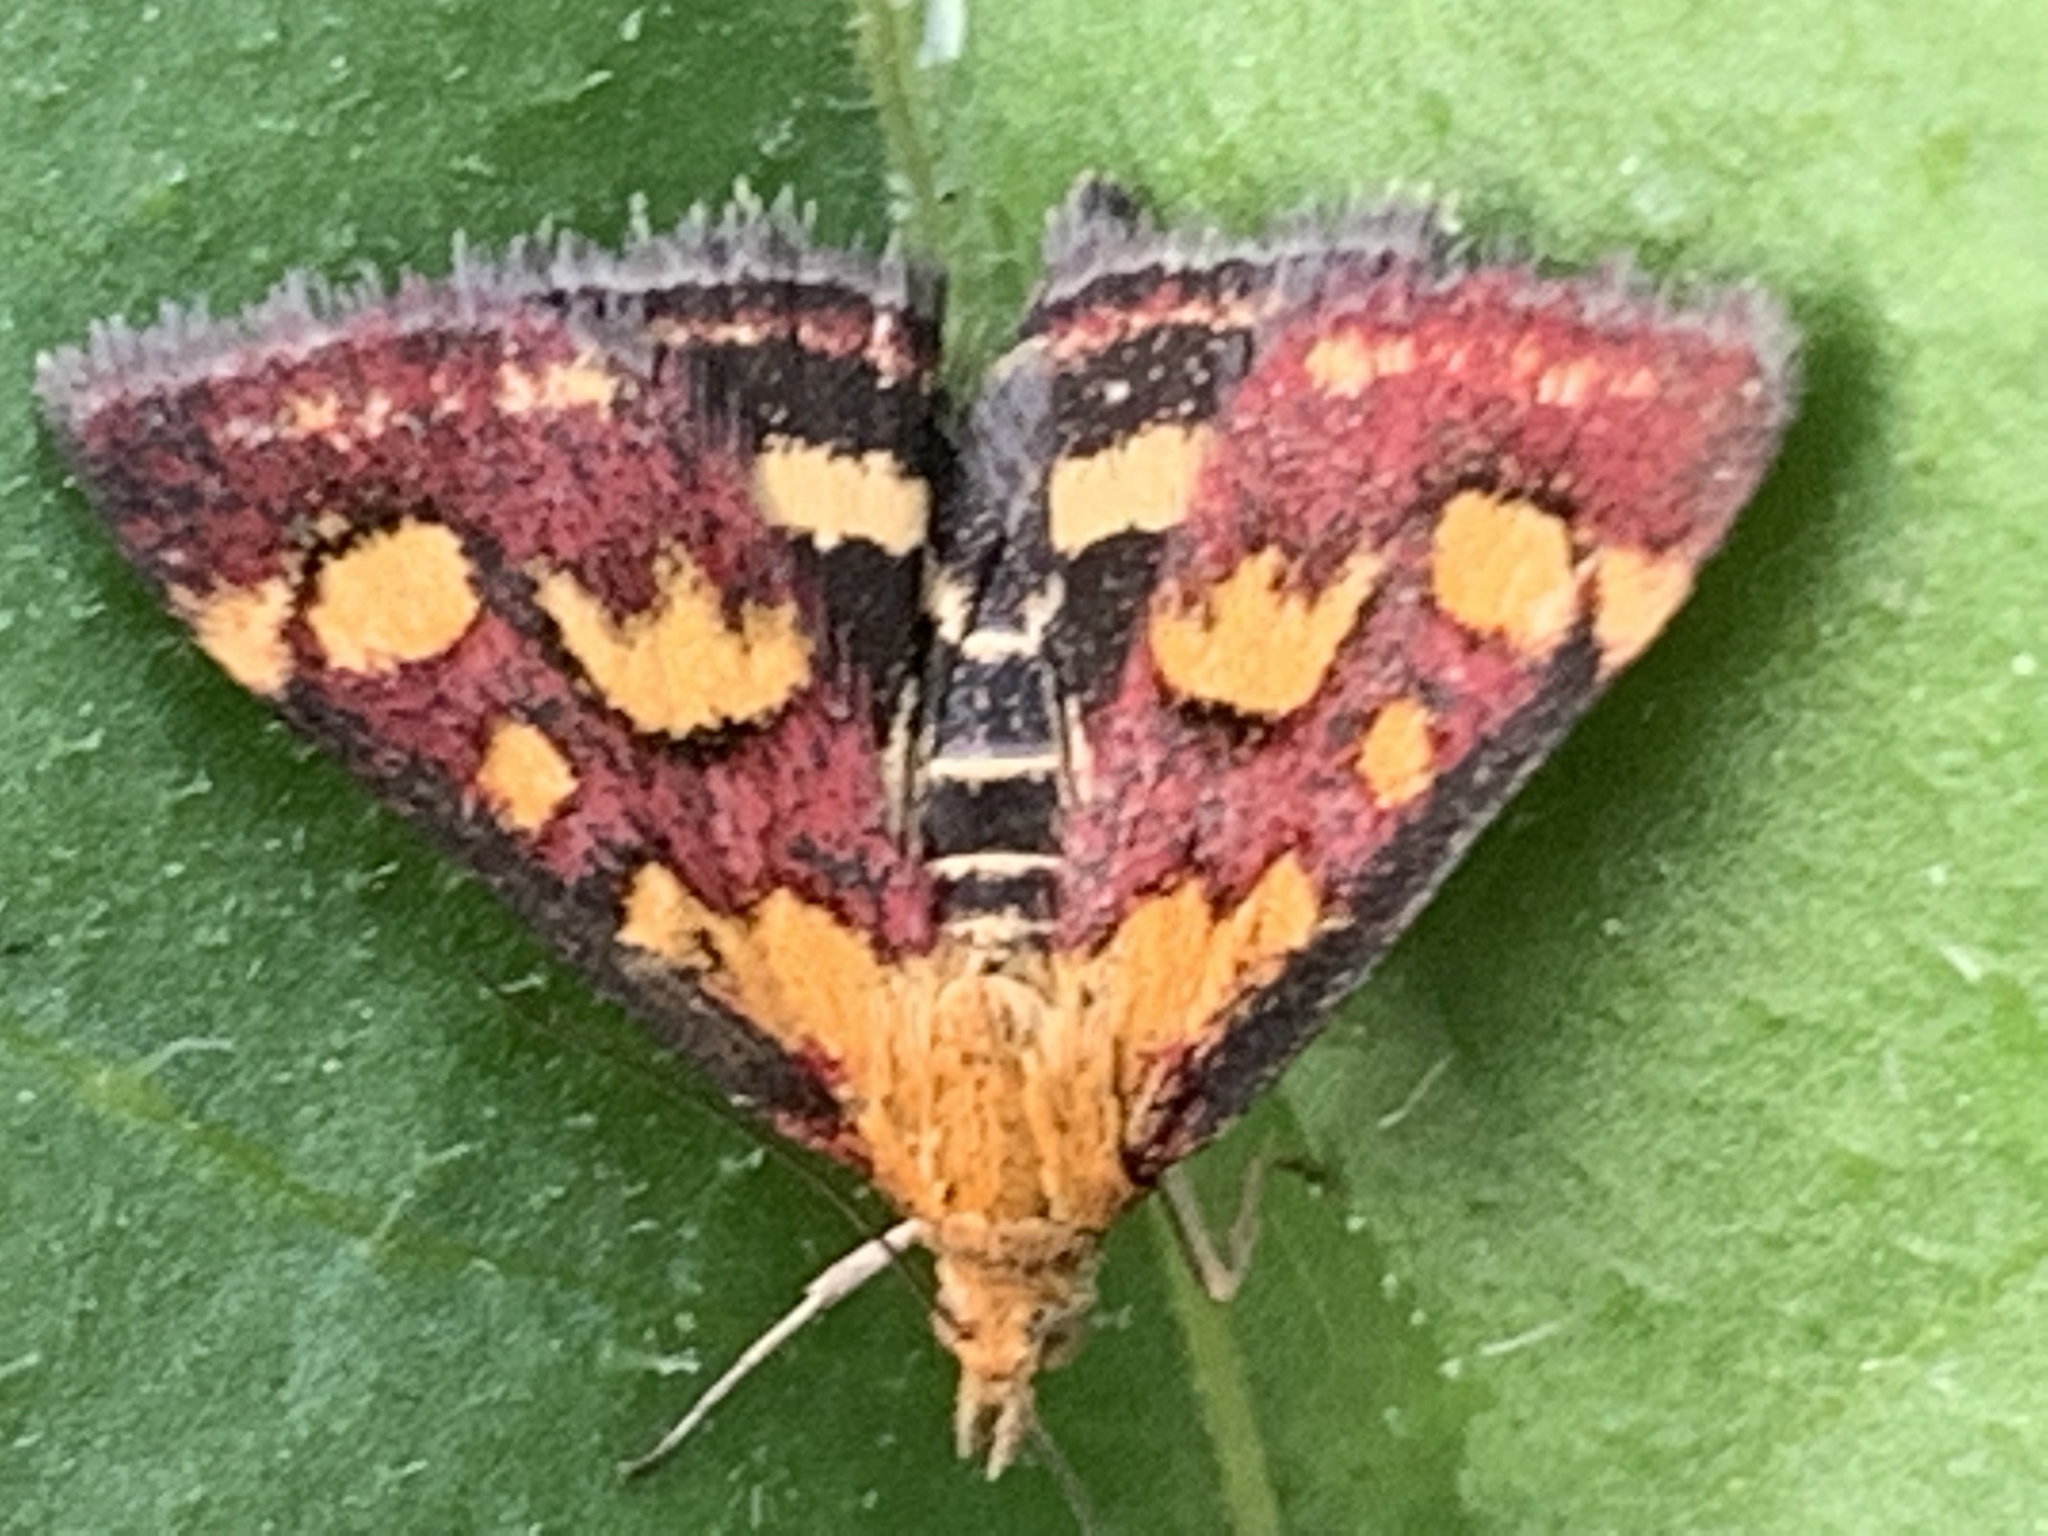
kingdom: Animalia
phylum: Arthropoda
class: Insecta
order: Lepidoptera
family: Crambidae
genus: Pyrausta
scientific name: Pyrausta purpuralis
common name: Common purple & gold
